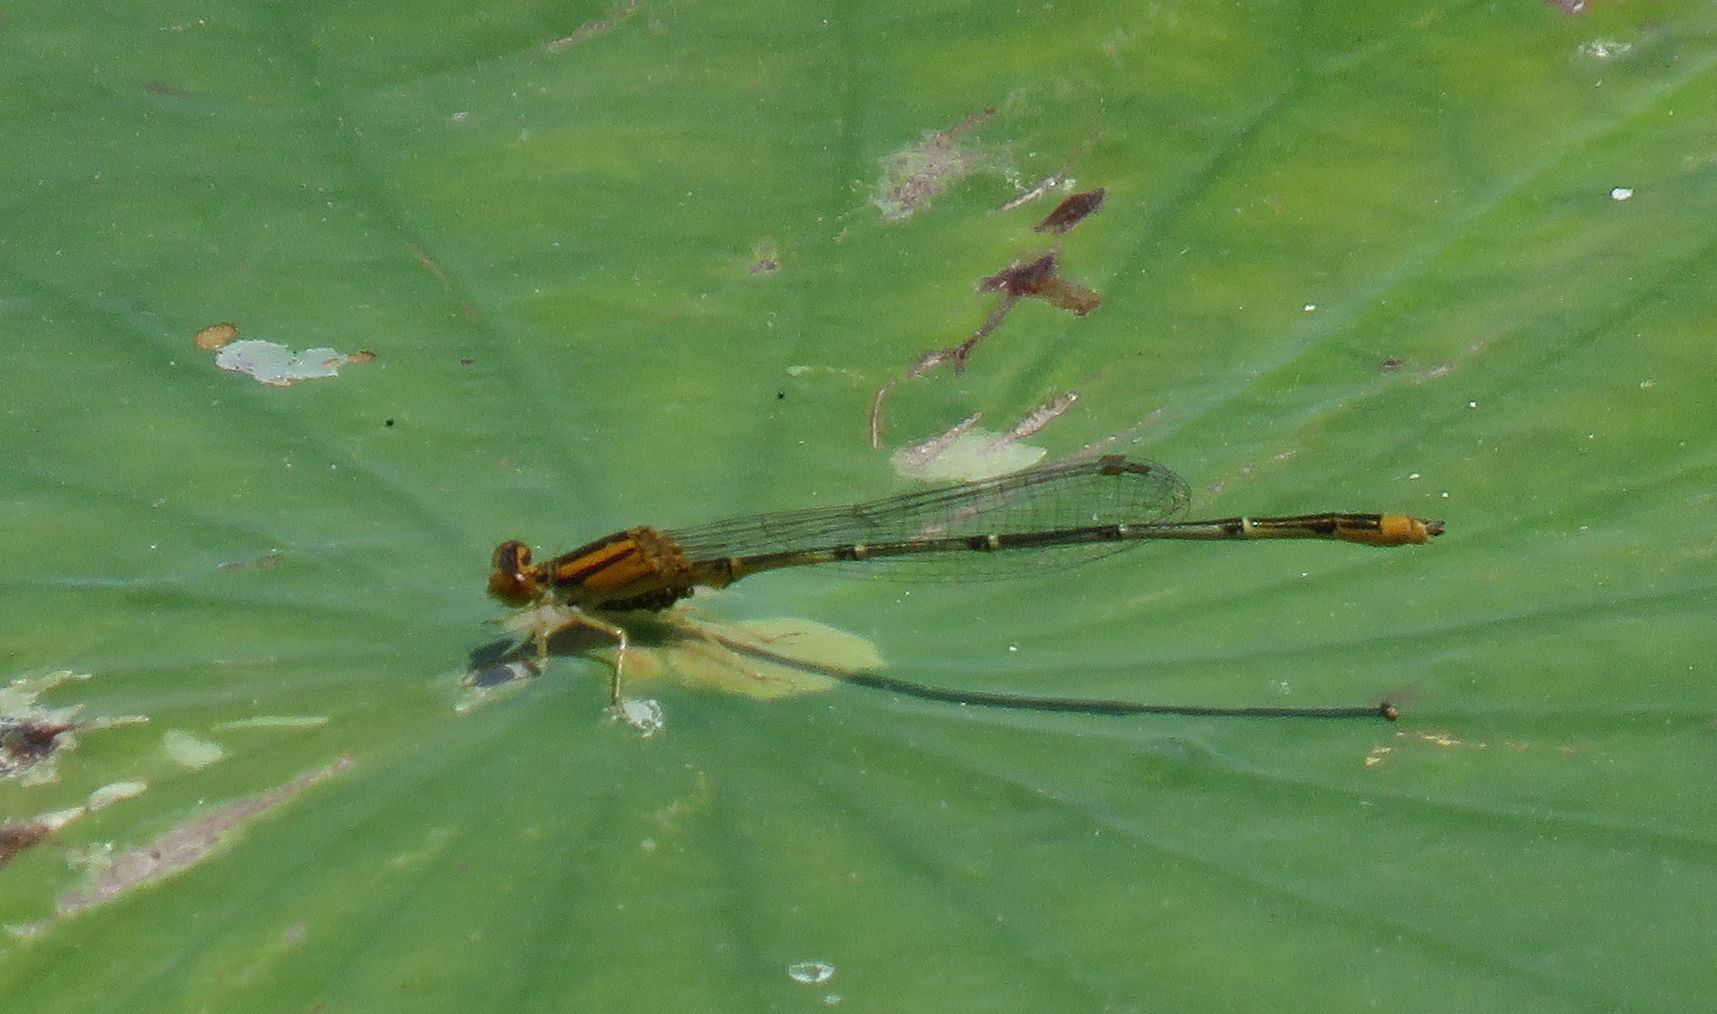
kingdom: Animalia
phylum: Arthropoda
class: Insecta
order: Odonata
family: Coenagrionidae
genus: Enallagma
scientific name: Enallagma signatum
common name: Orange bluet
